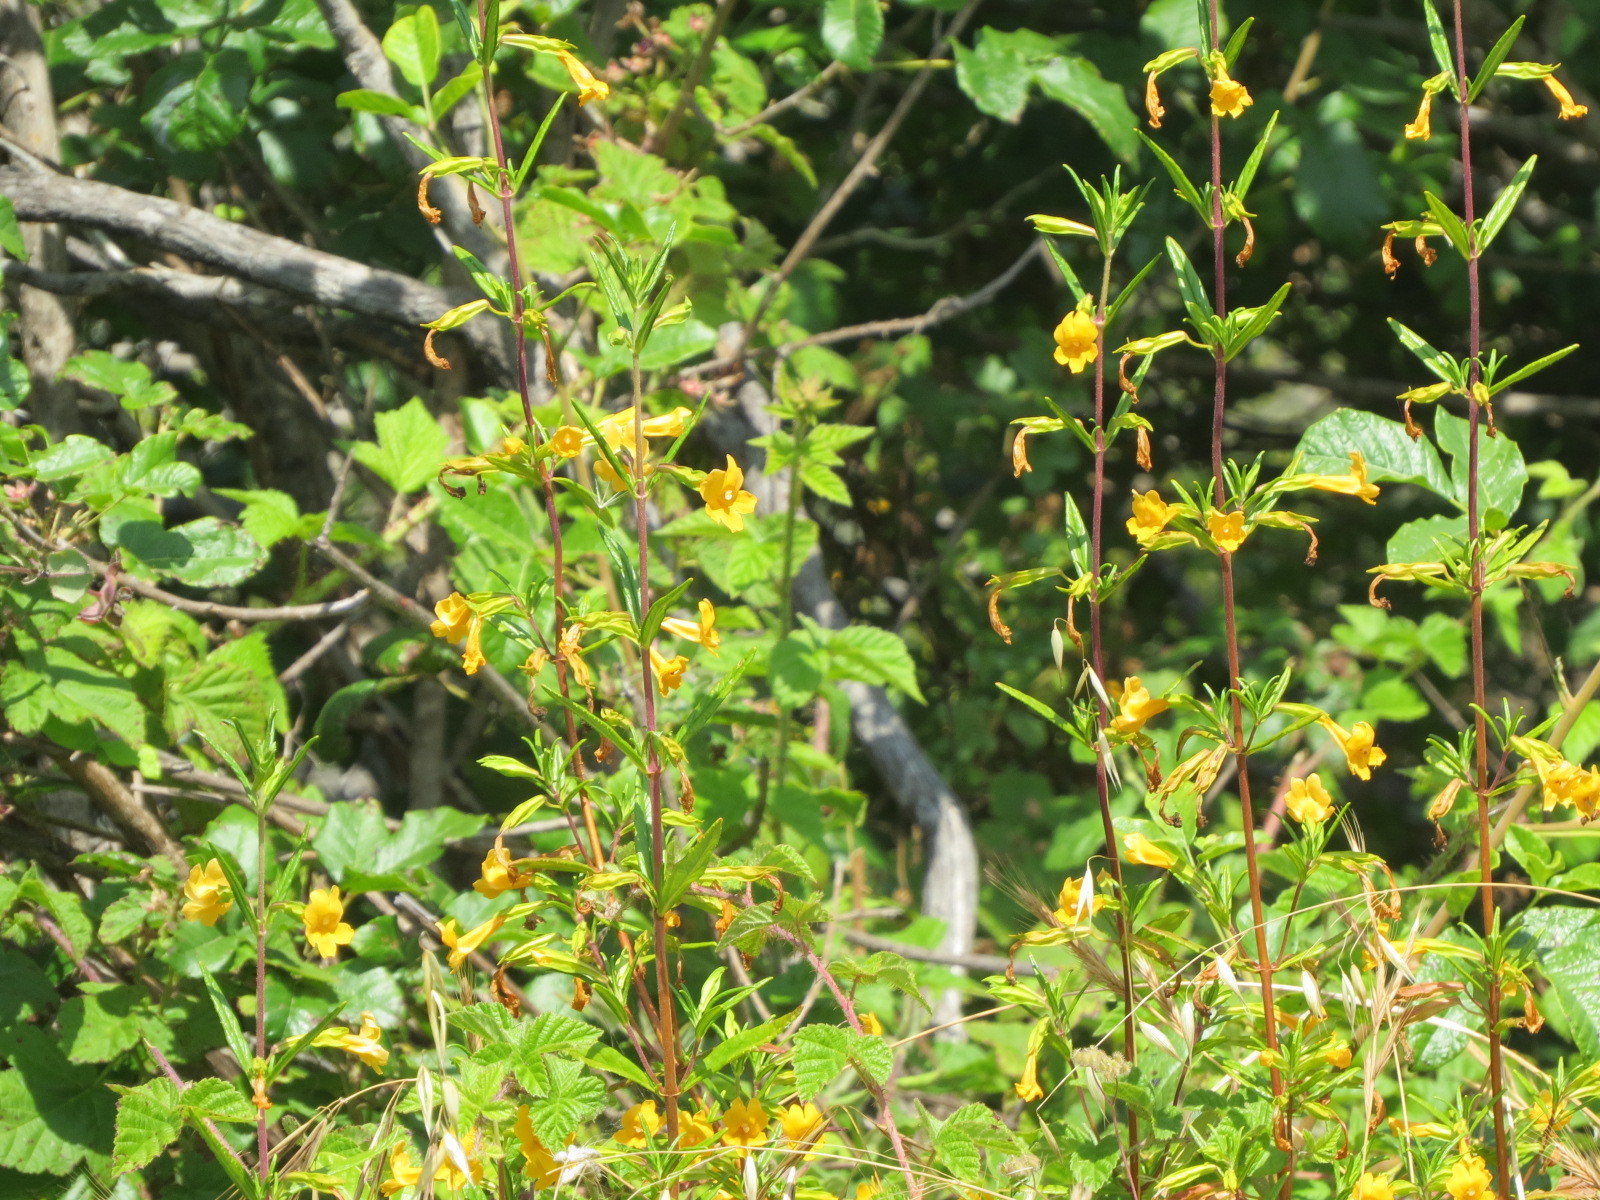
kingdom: Plantae
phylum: Tracheophyta
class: Magnoliopsida
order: Lamiales
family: Phrymaceae
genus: Diplacus
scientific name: Diplacus aurantiacus
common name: Bush monkey-flower
